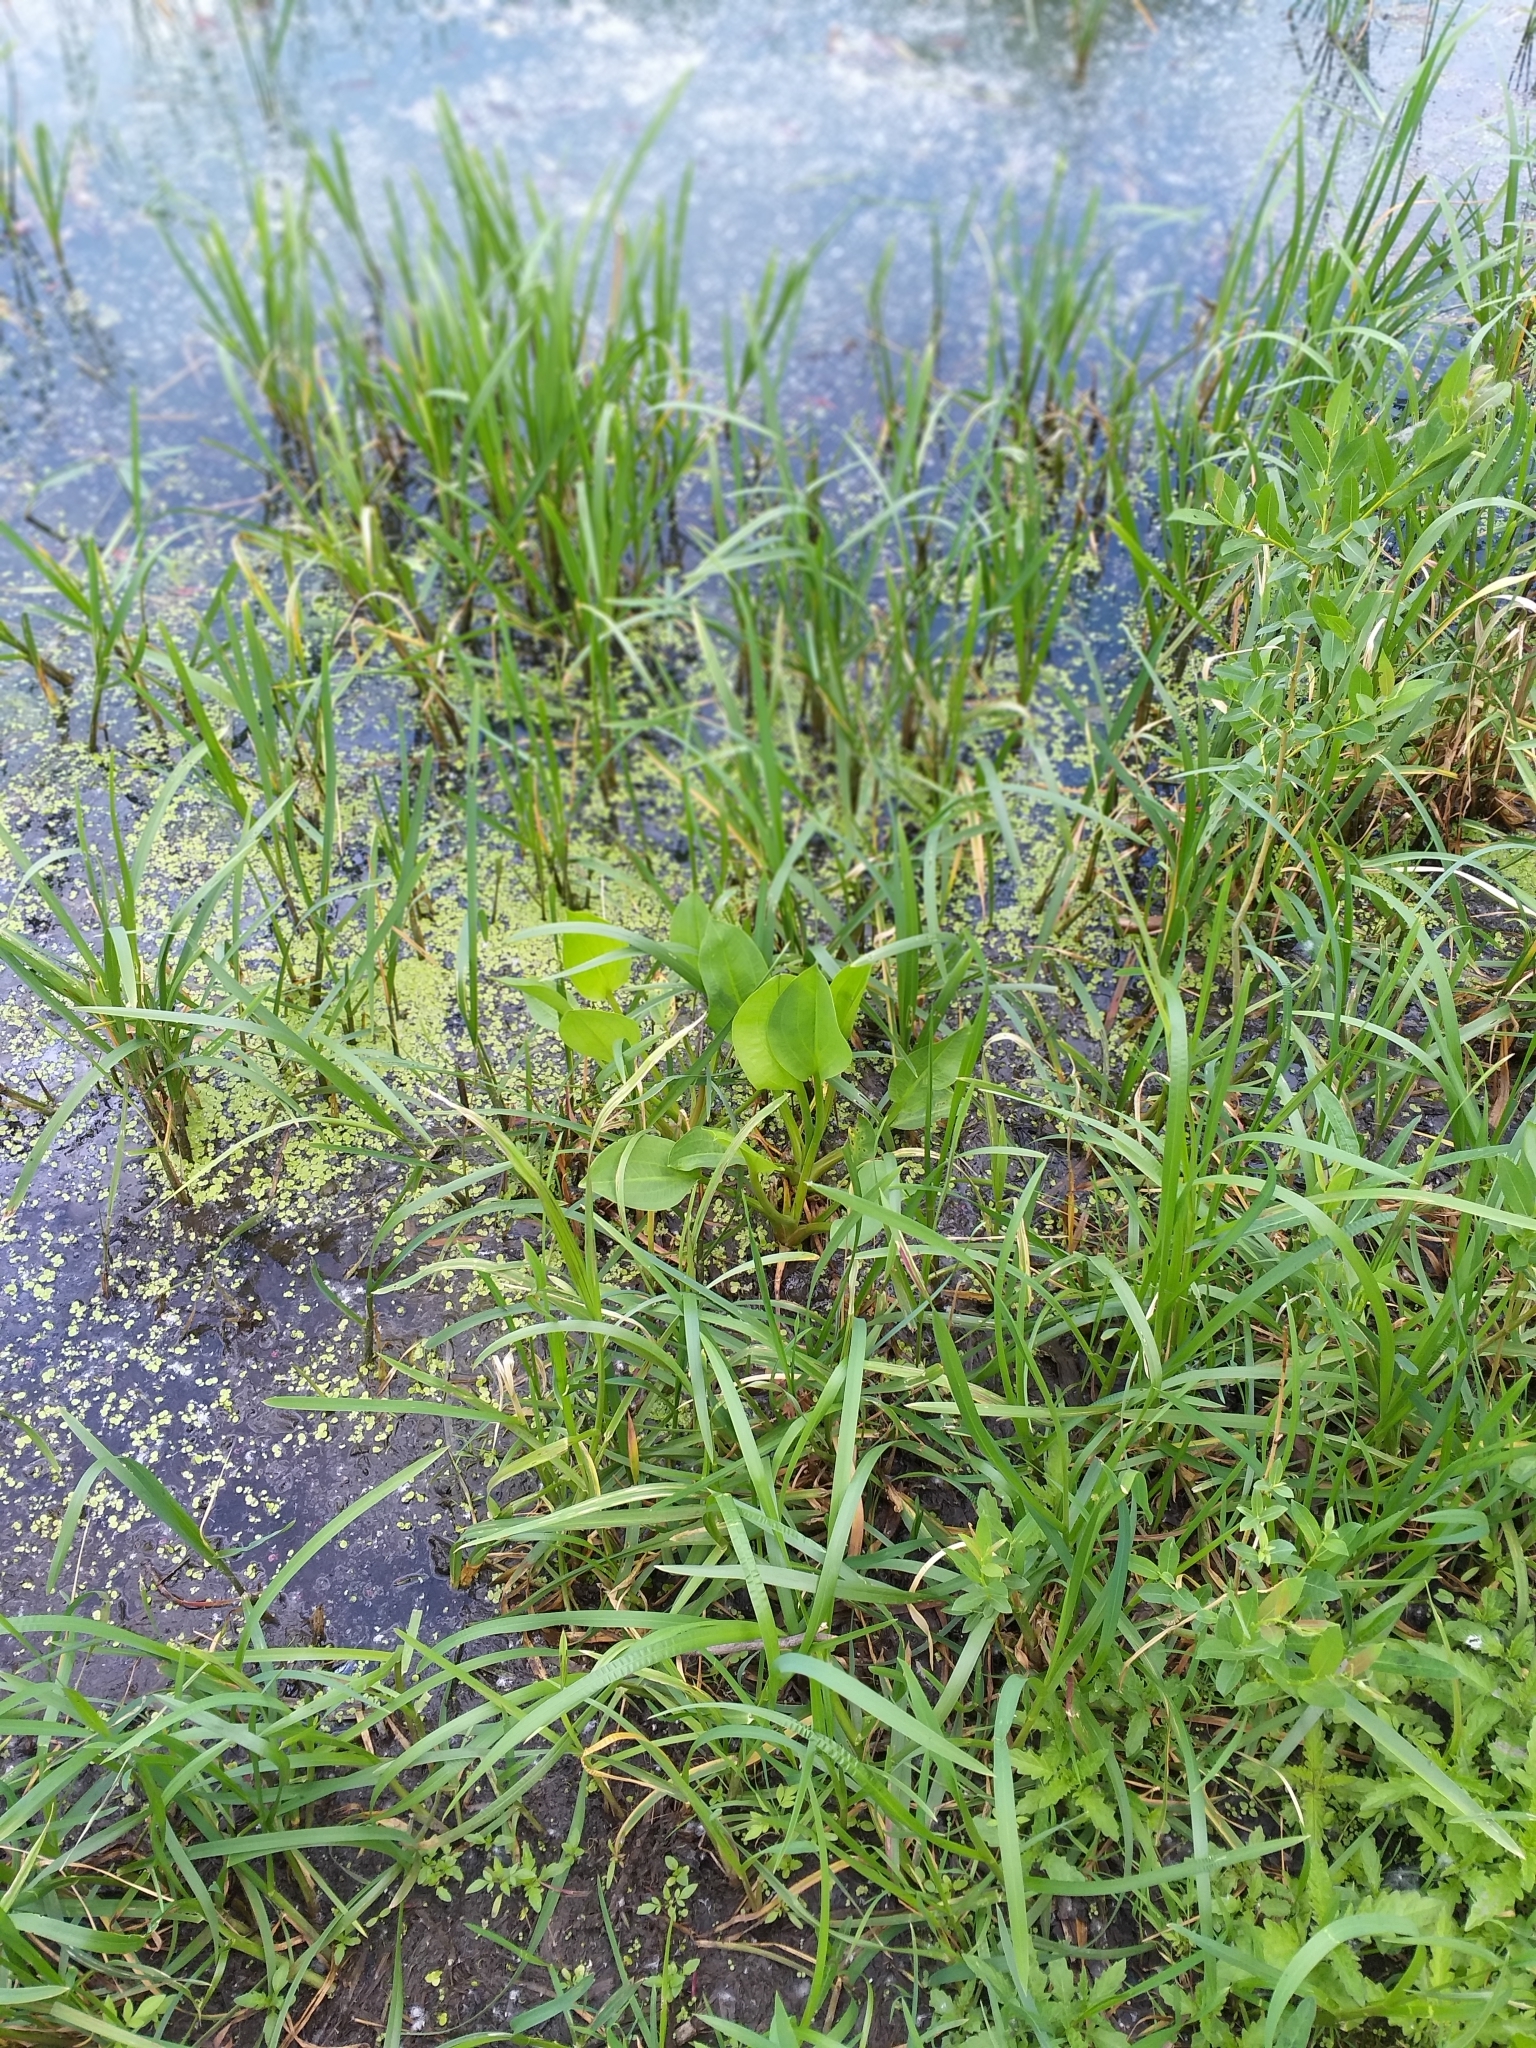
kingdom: Plantae
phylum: Tracheophyta
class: Liliopsida
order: Alismatales
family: Alismataceae
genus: Alisma
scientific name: Alisma plantago-aquatica
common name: Water-plantain
